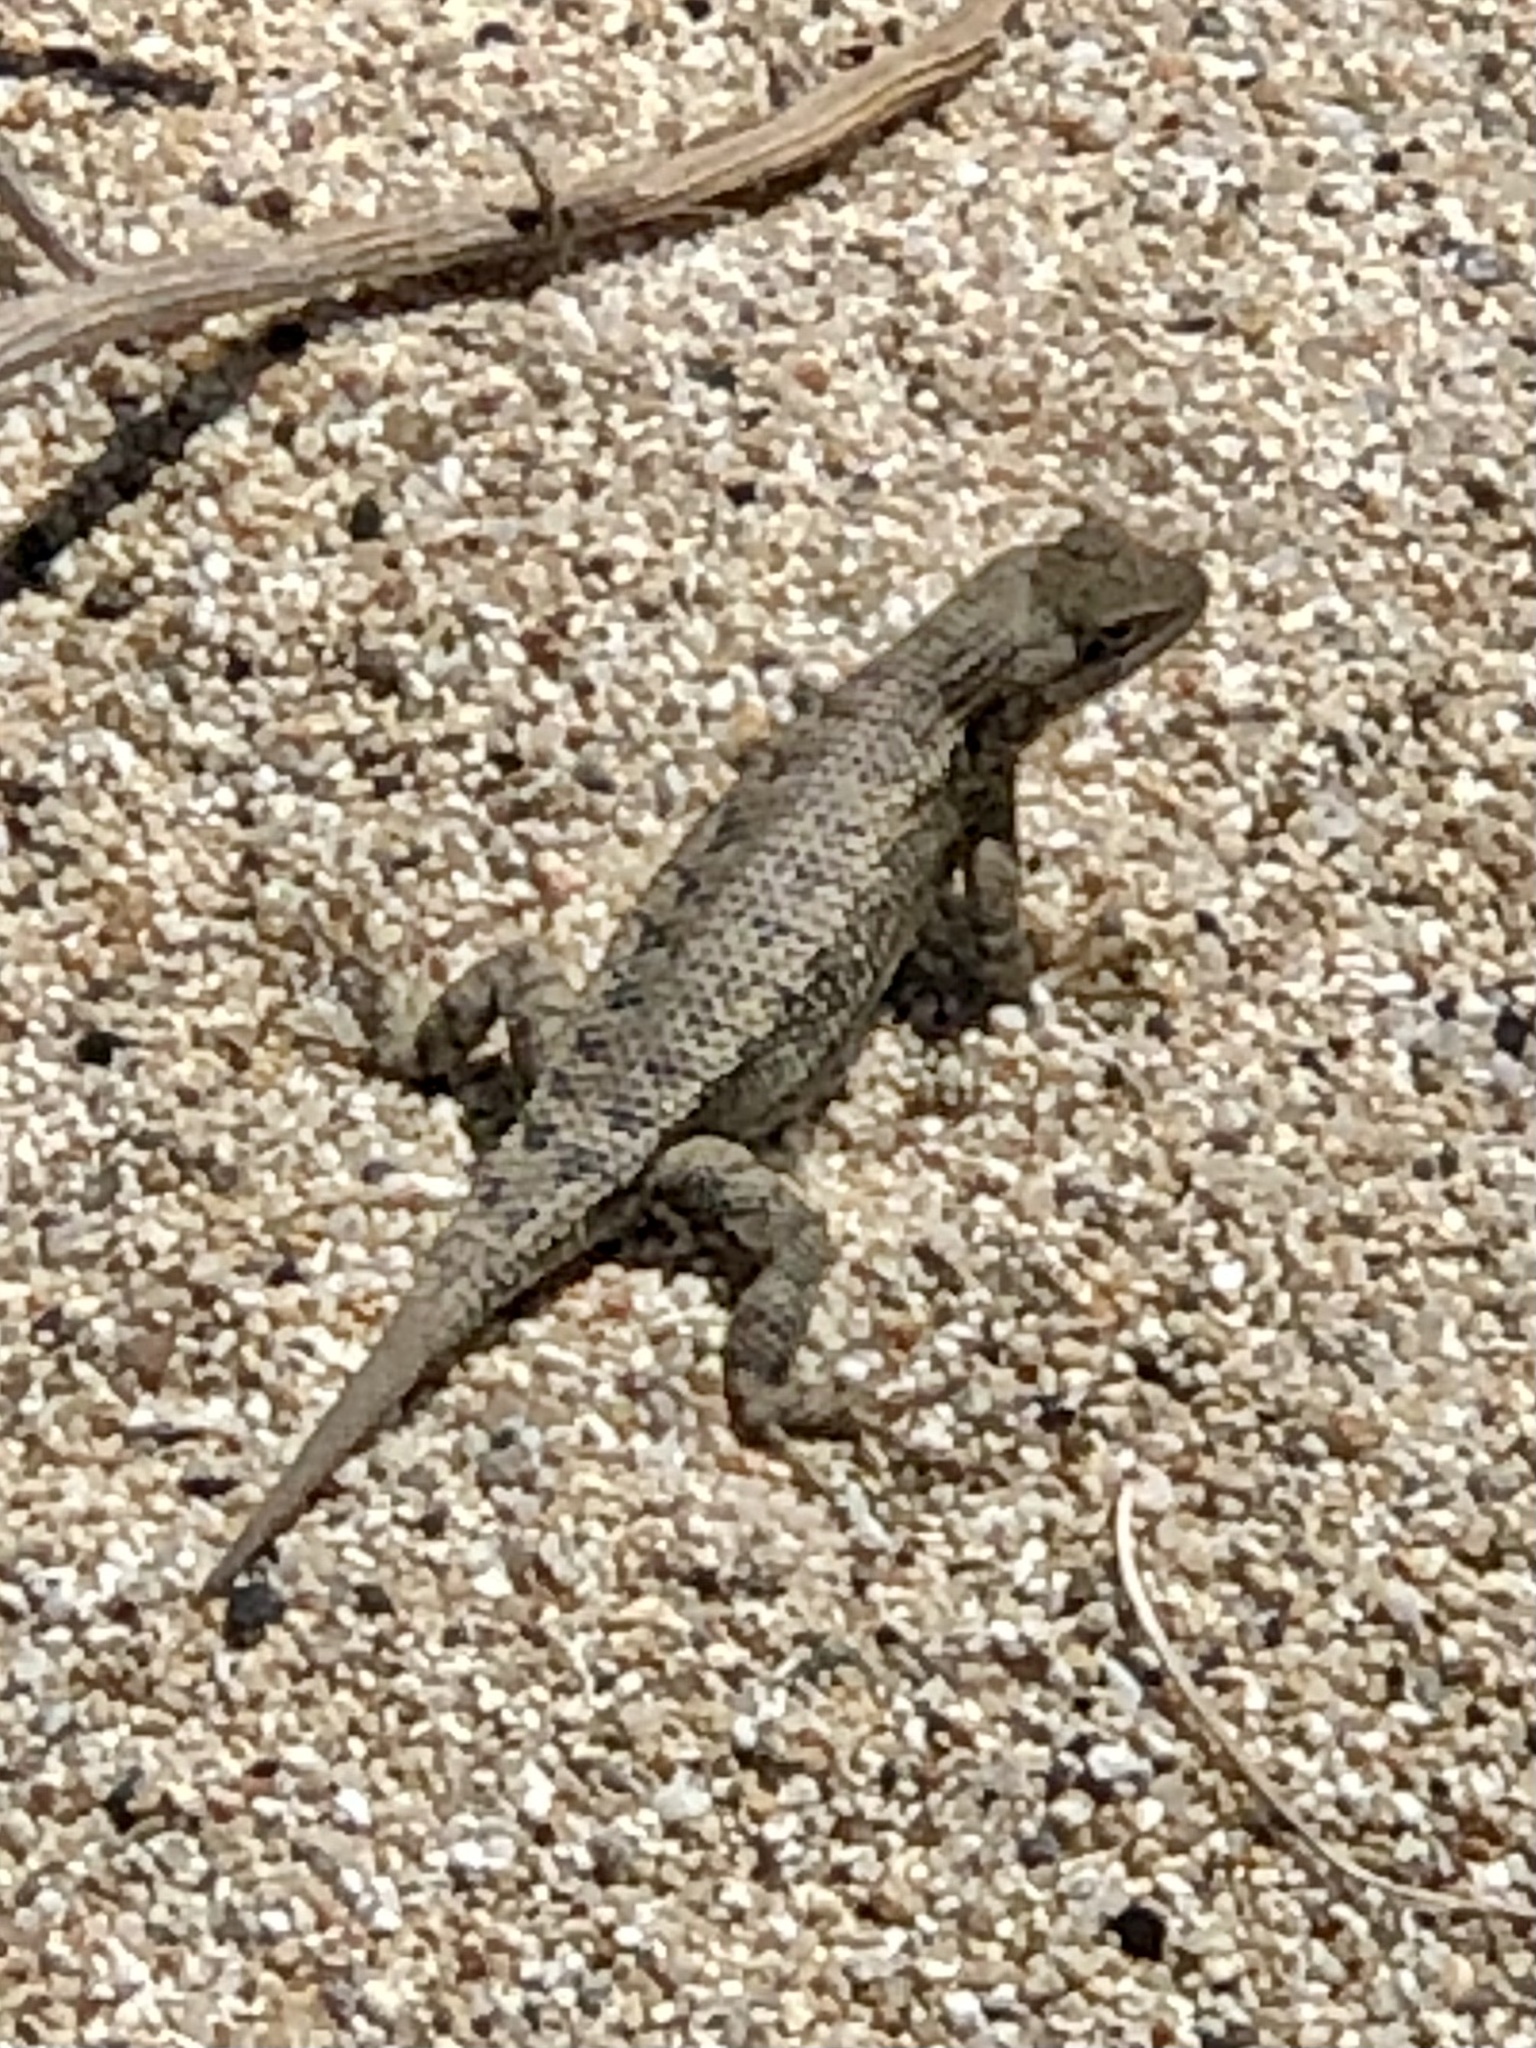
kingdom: Animalia
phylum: Chordata
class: Squamata
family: Phrynosomatidae
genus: Sceloporus
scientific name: Sceloporus occidentalis
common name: Western fence lizard
